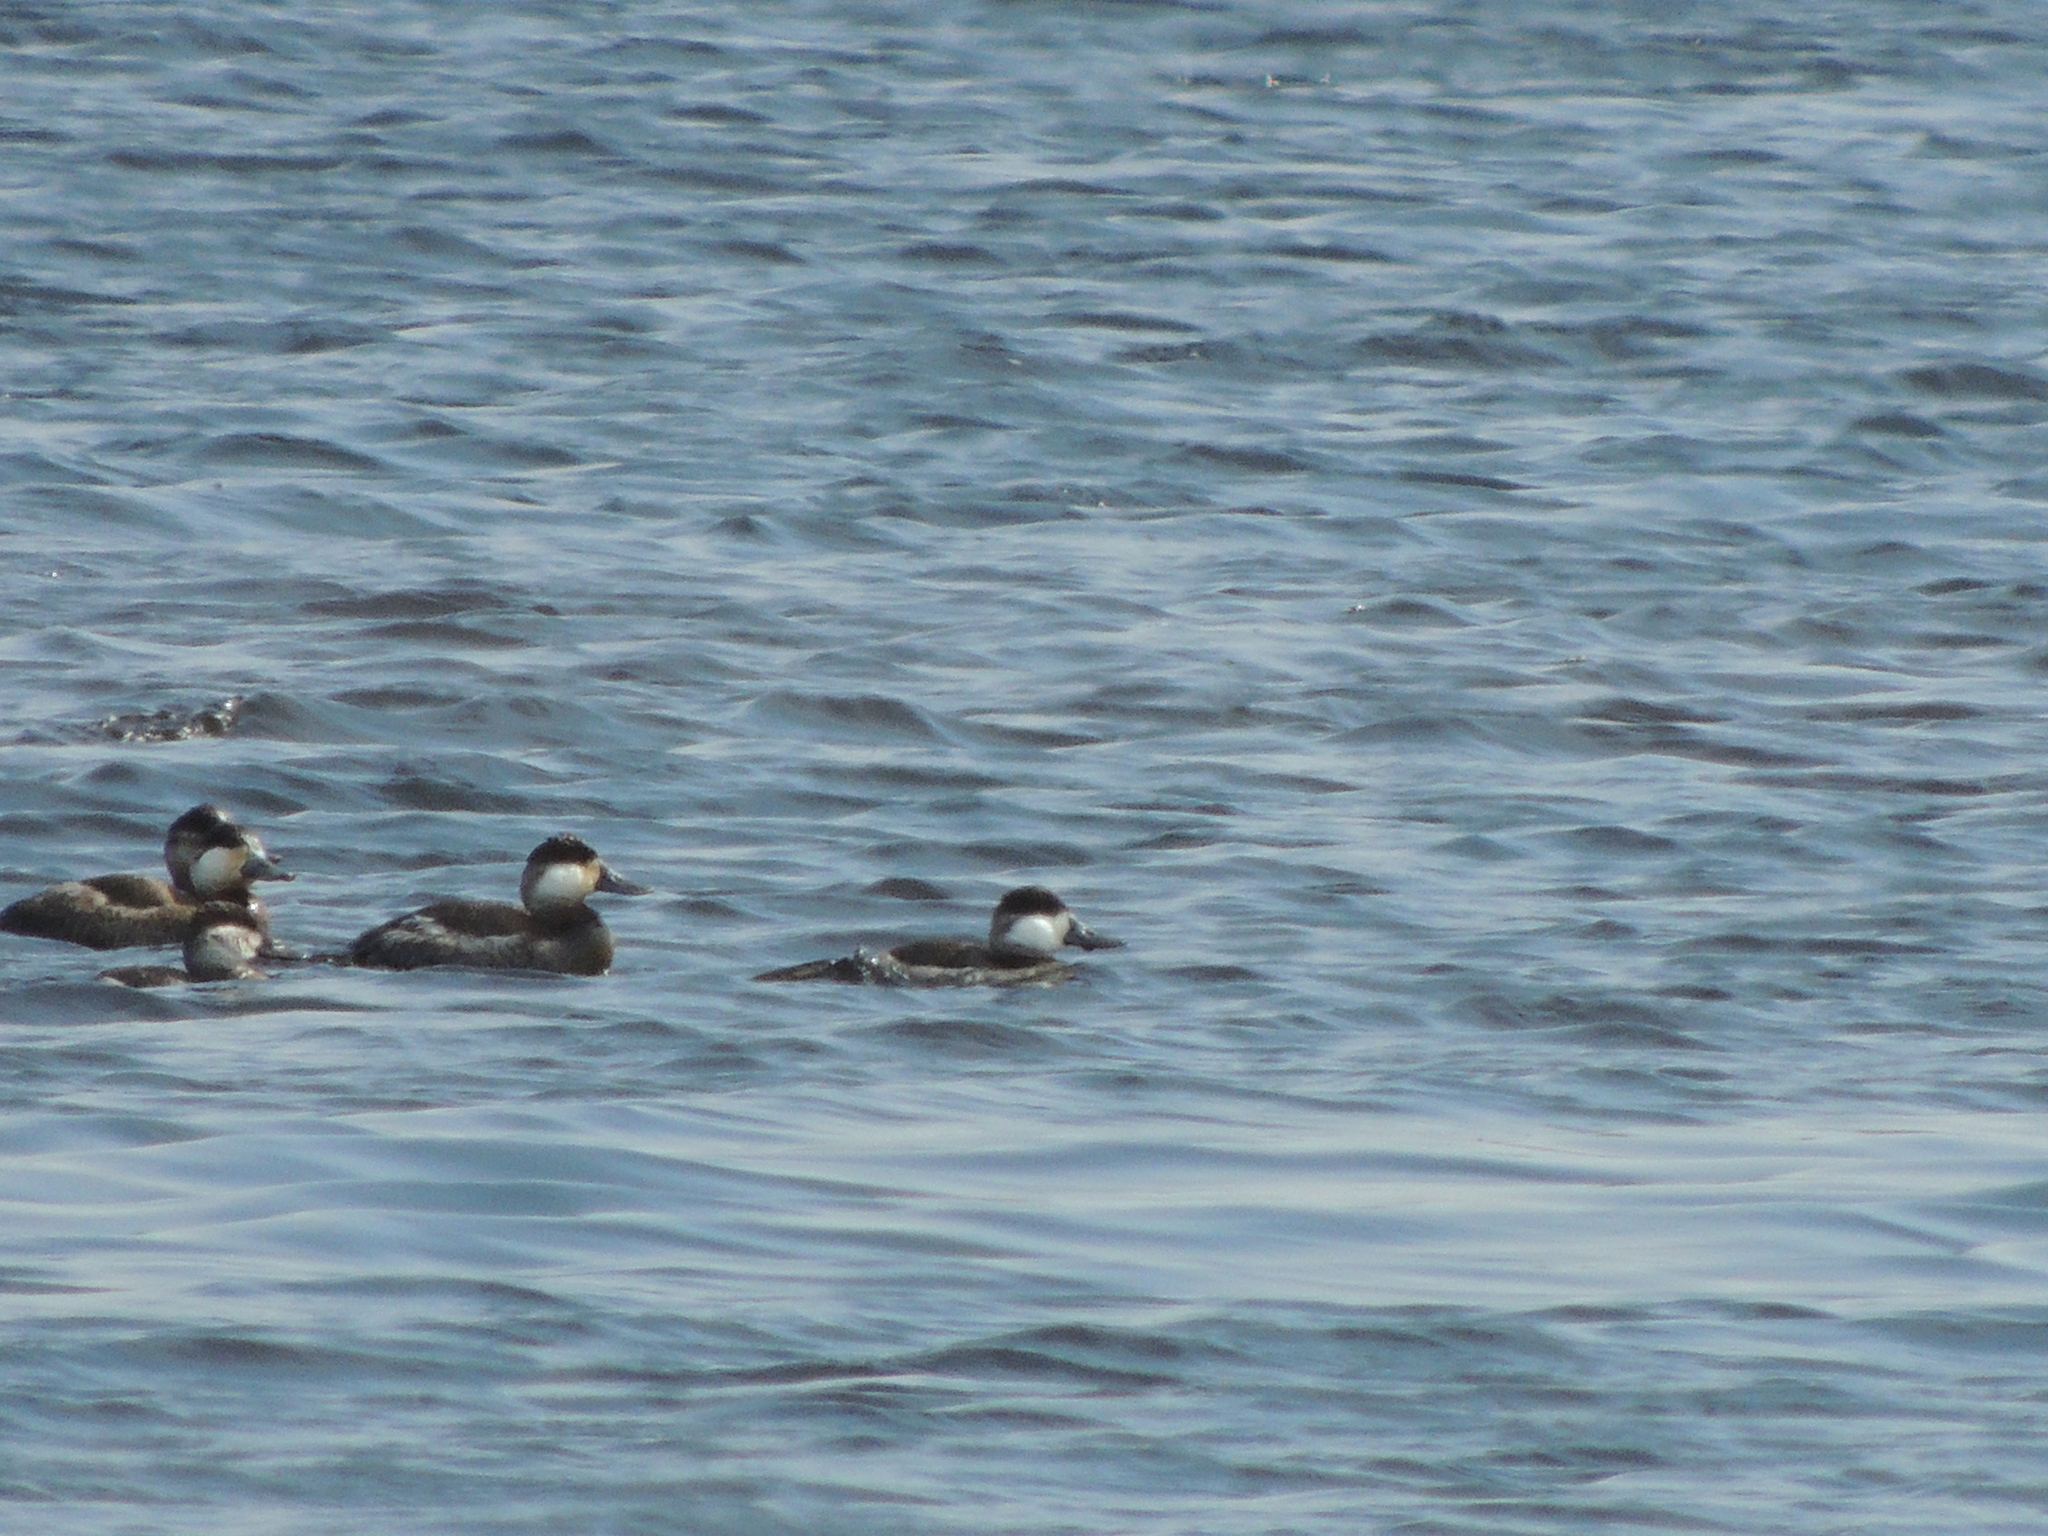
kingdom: Animalia
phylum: Chordata
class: Aves
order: Anseriformes
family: Anatidae
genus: Oxyura
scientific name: Oxyura jamaicensis
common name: Ruddy duck
